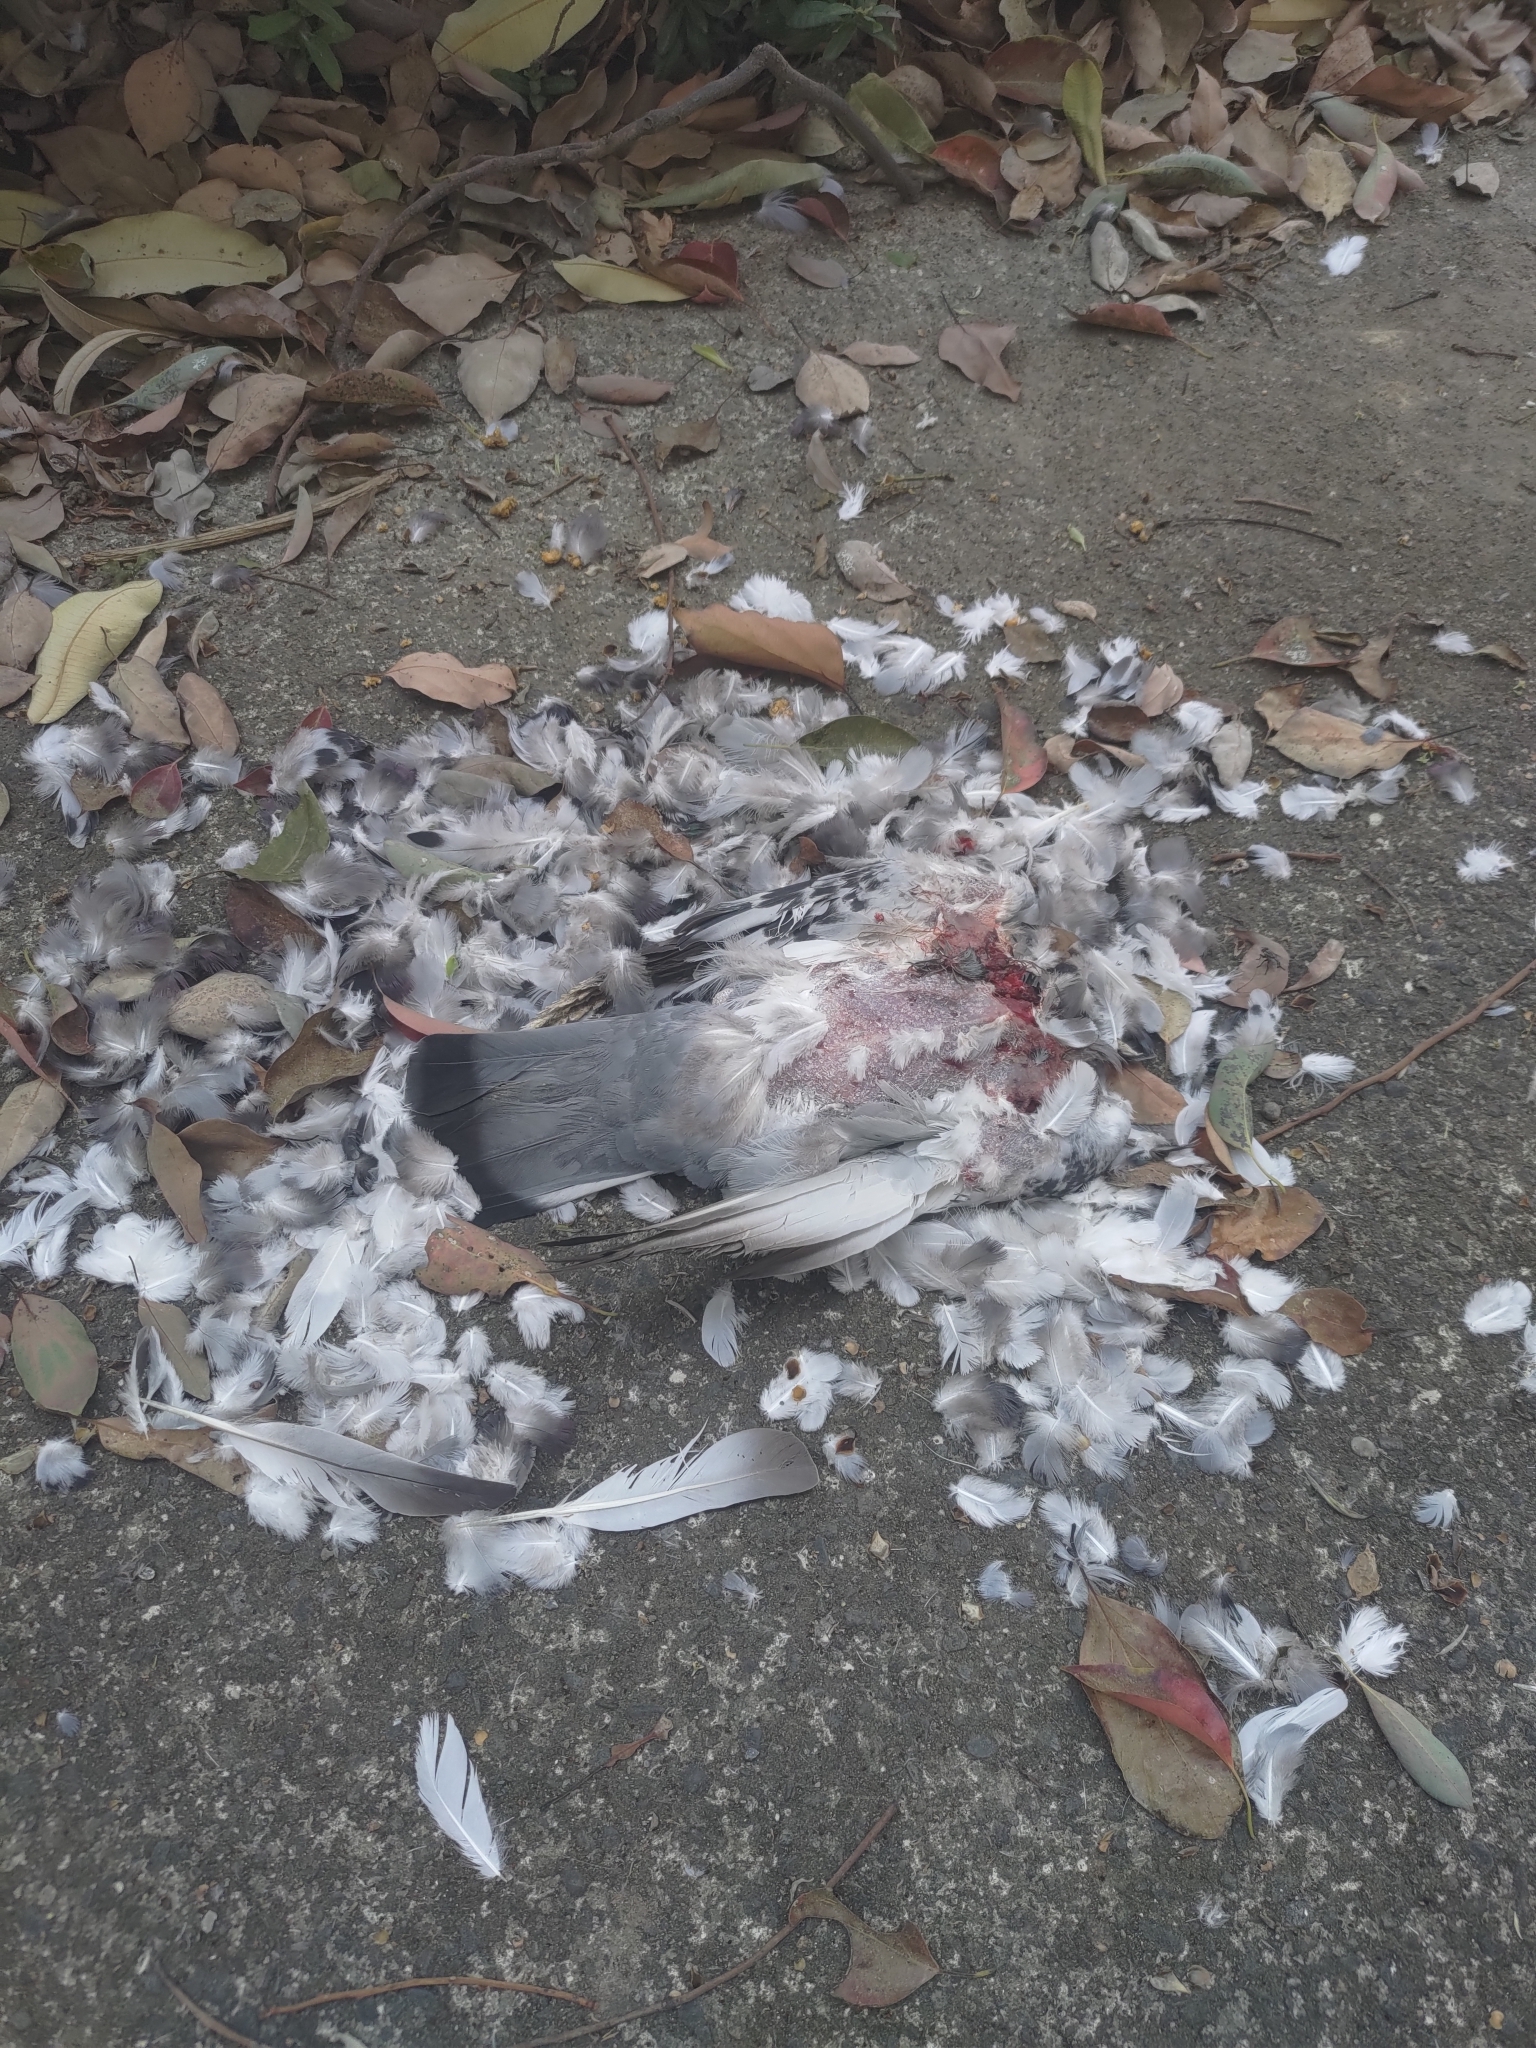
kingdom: Animalia
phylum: Chordata
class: Aves
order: Columbiformes
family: Columbidae
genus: Columba
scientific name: Columba livia
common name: Rock pigeon
